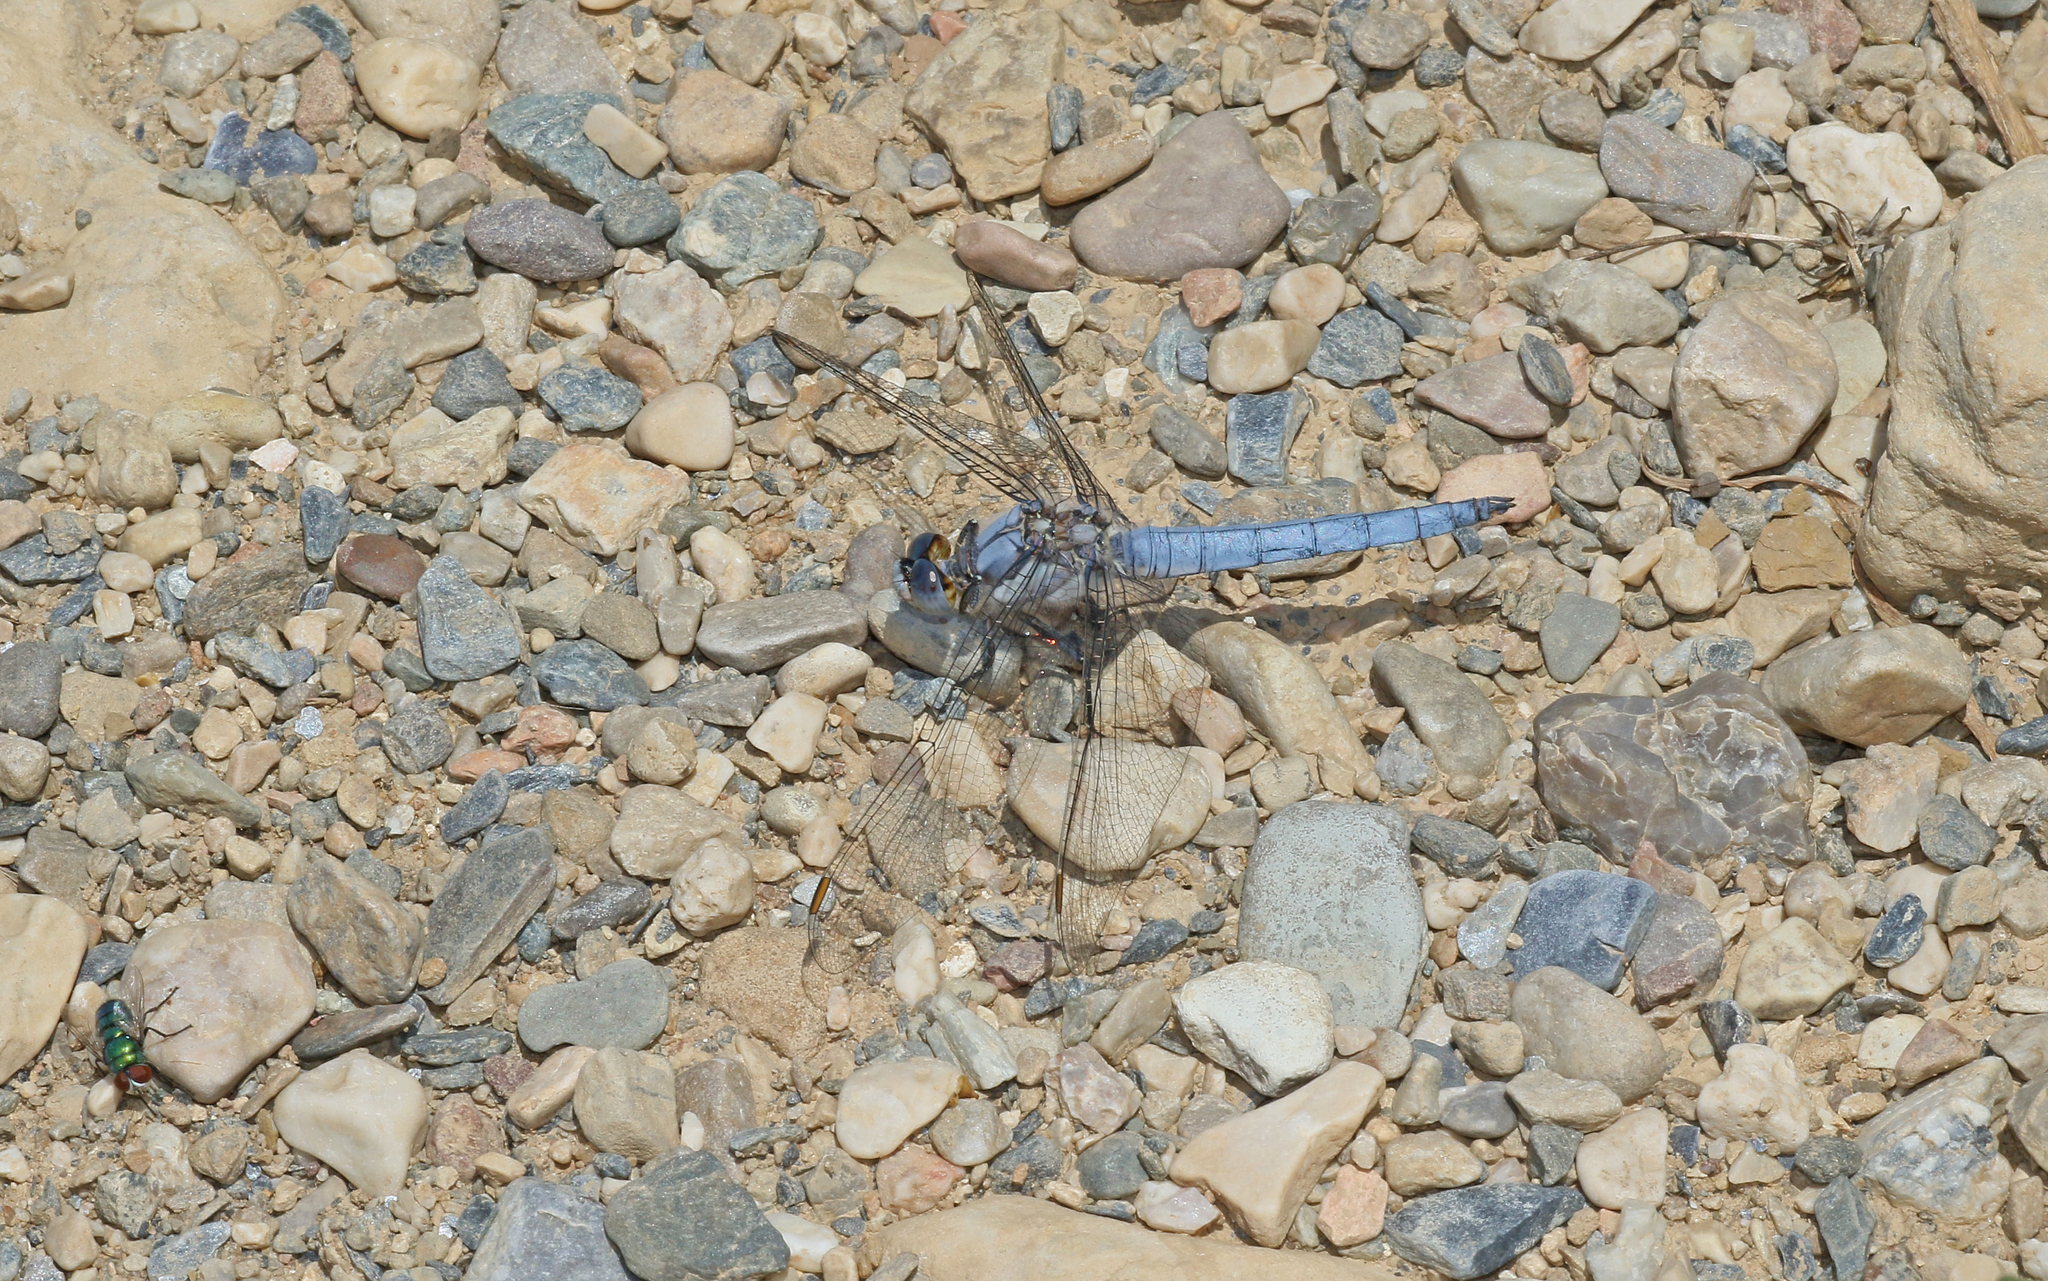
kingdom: Animalia
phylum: Arthropoda
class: Insecta
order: Odonata
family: Libellulidae
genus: Orthetrum
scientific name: Orthetrum brunneum
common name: Southern skimmer
